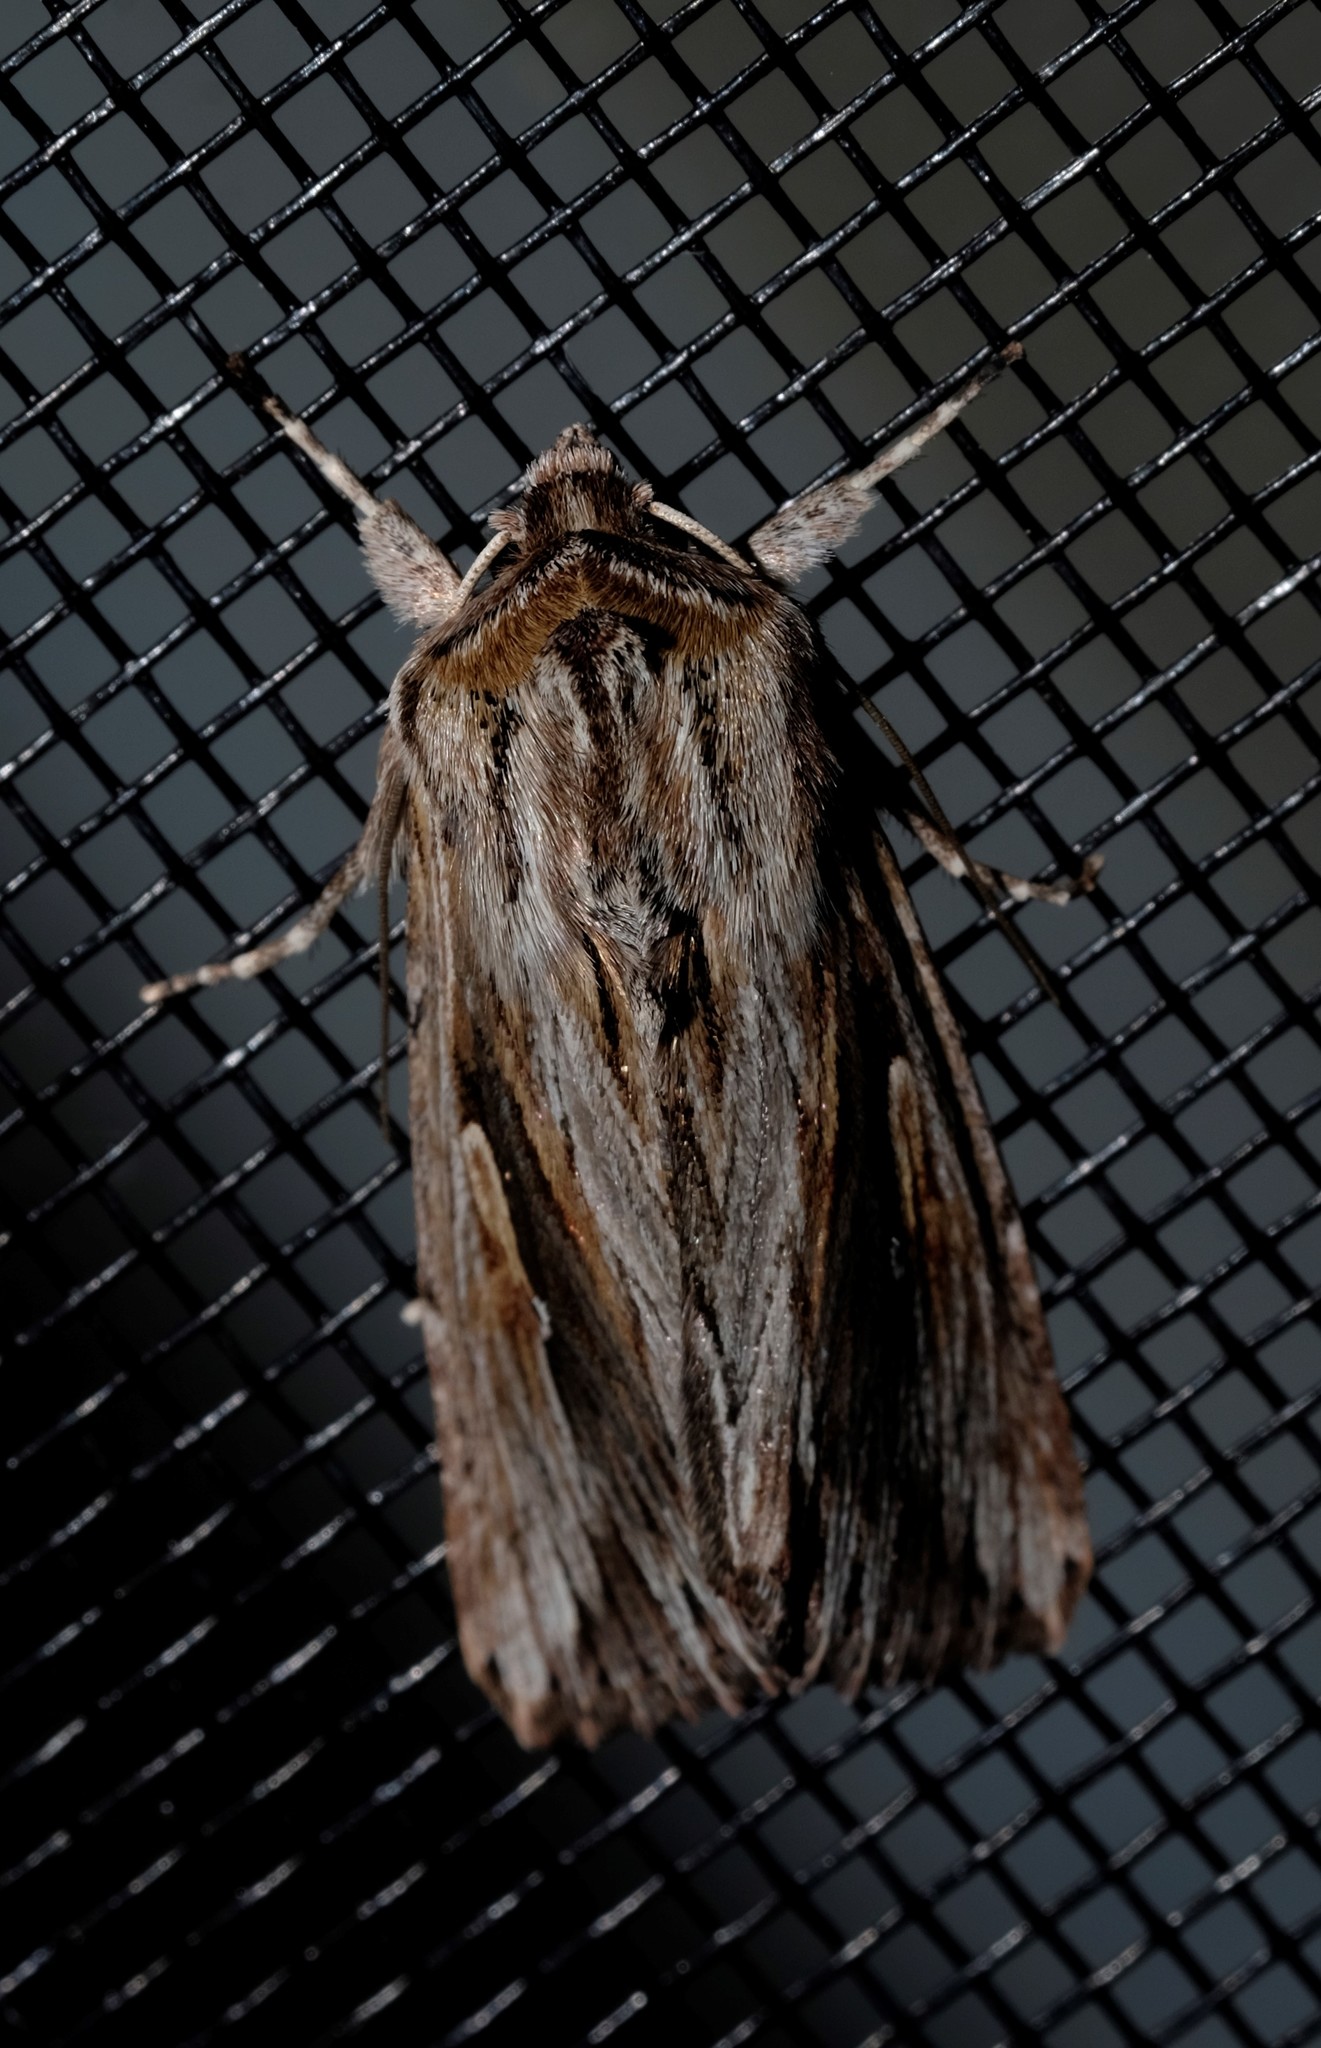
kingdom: Animalia
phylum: Arthropoda
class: Insecta
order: Lepidoptera
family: Noctuidae
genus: Persectania
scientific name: Persectania ewingii
